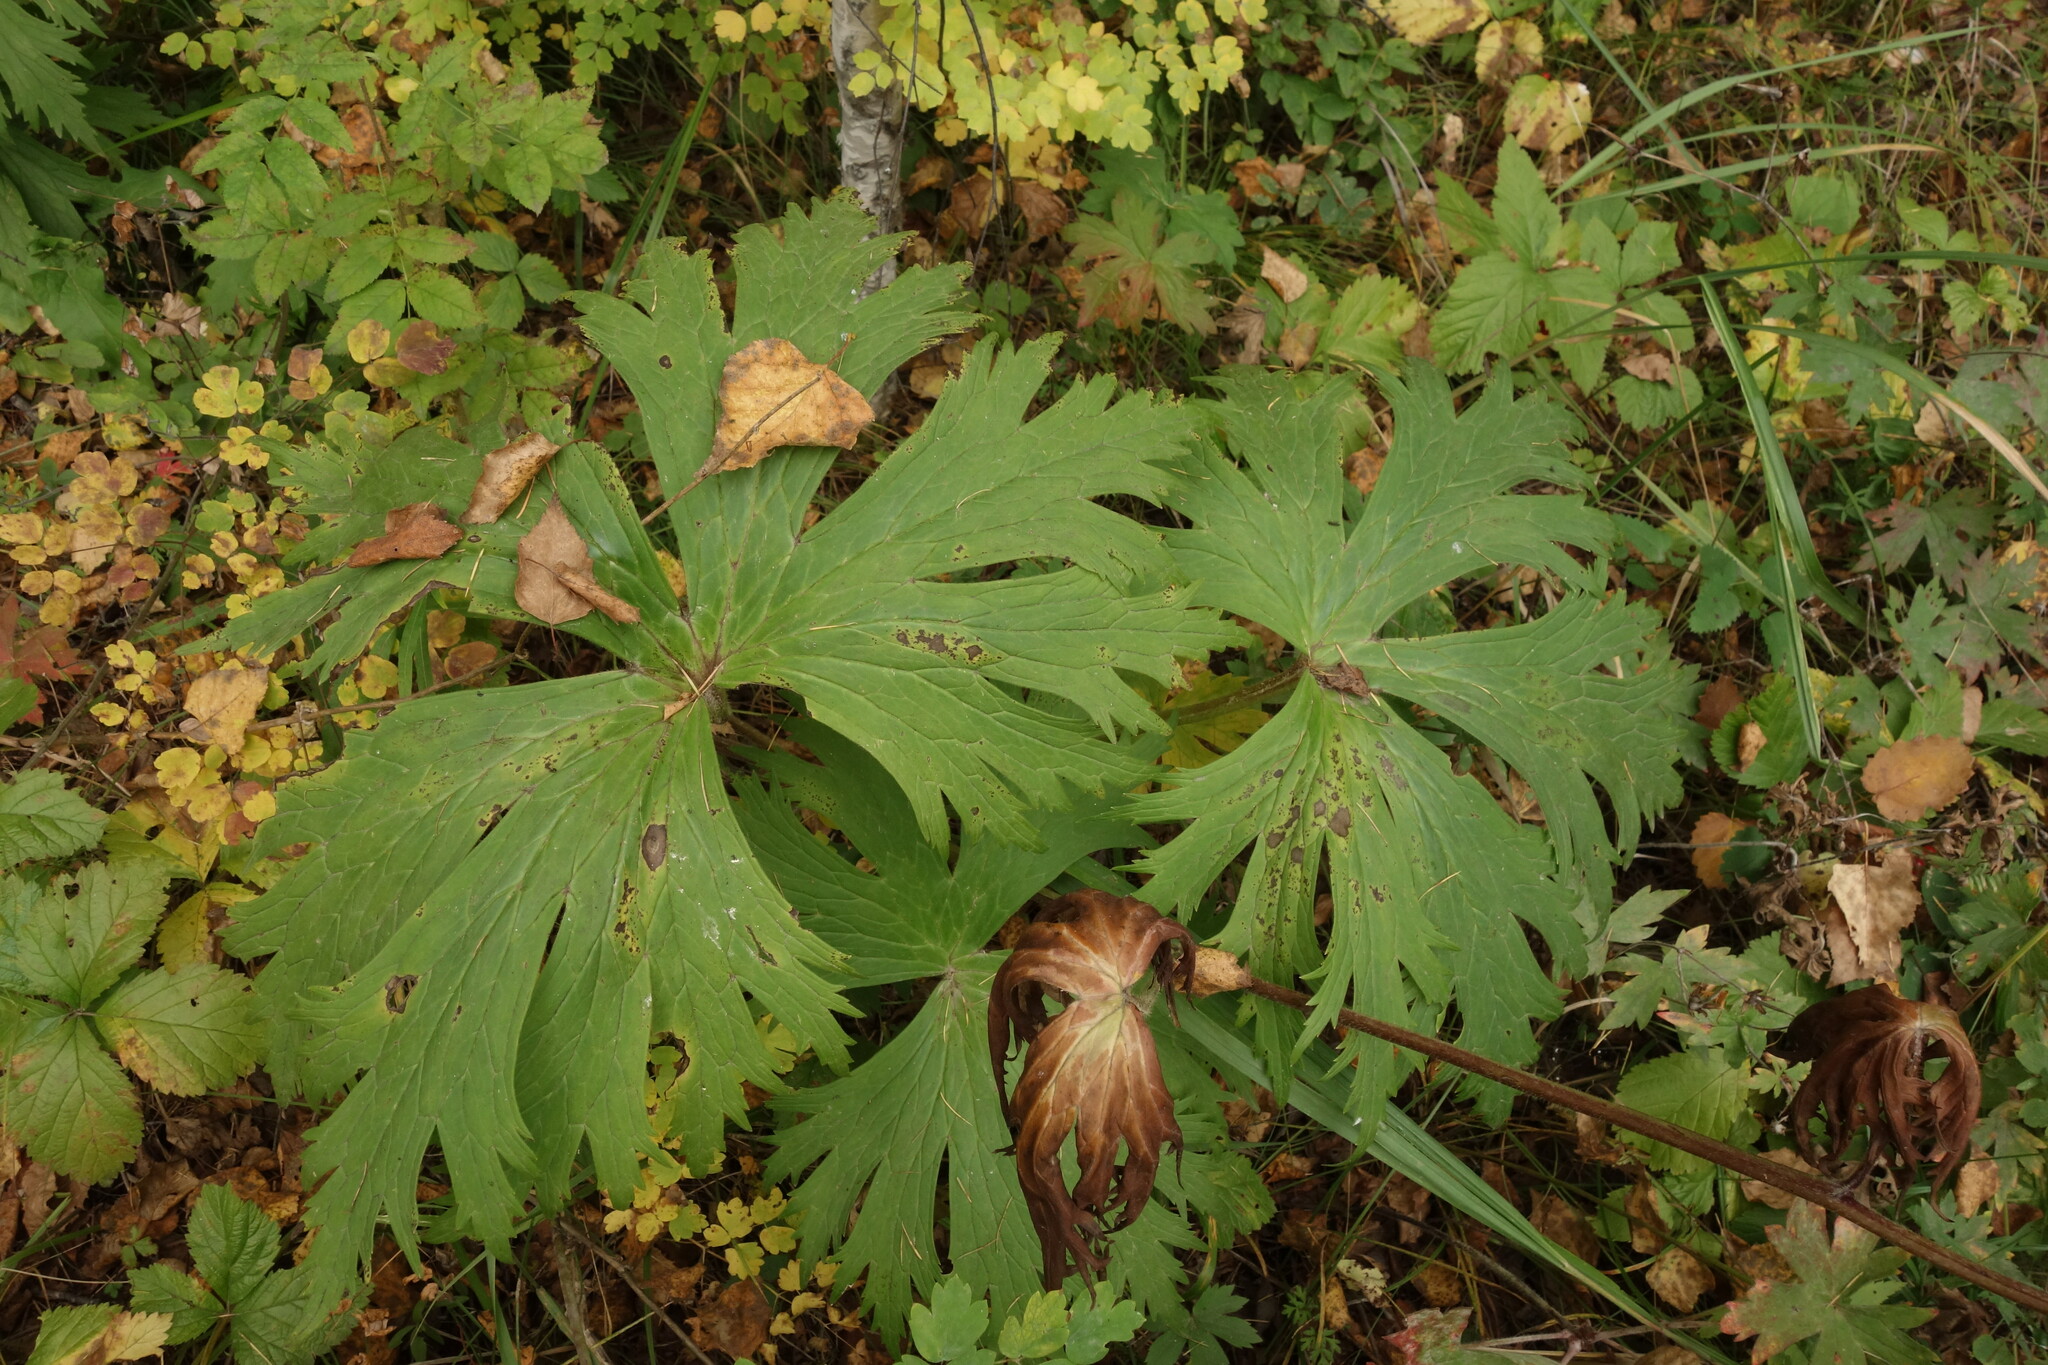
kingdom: Plantae
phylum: Tracheophyta
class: Magnoliopsida
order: Ranunculales
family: Ranunculaceae
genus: Aconitum
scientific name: Aconitum septentrionale
